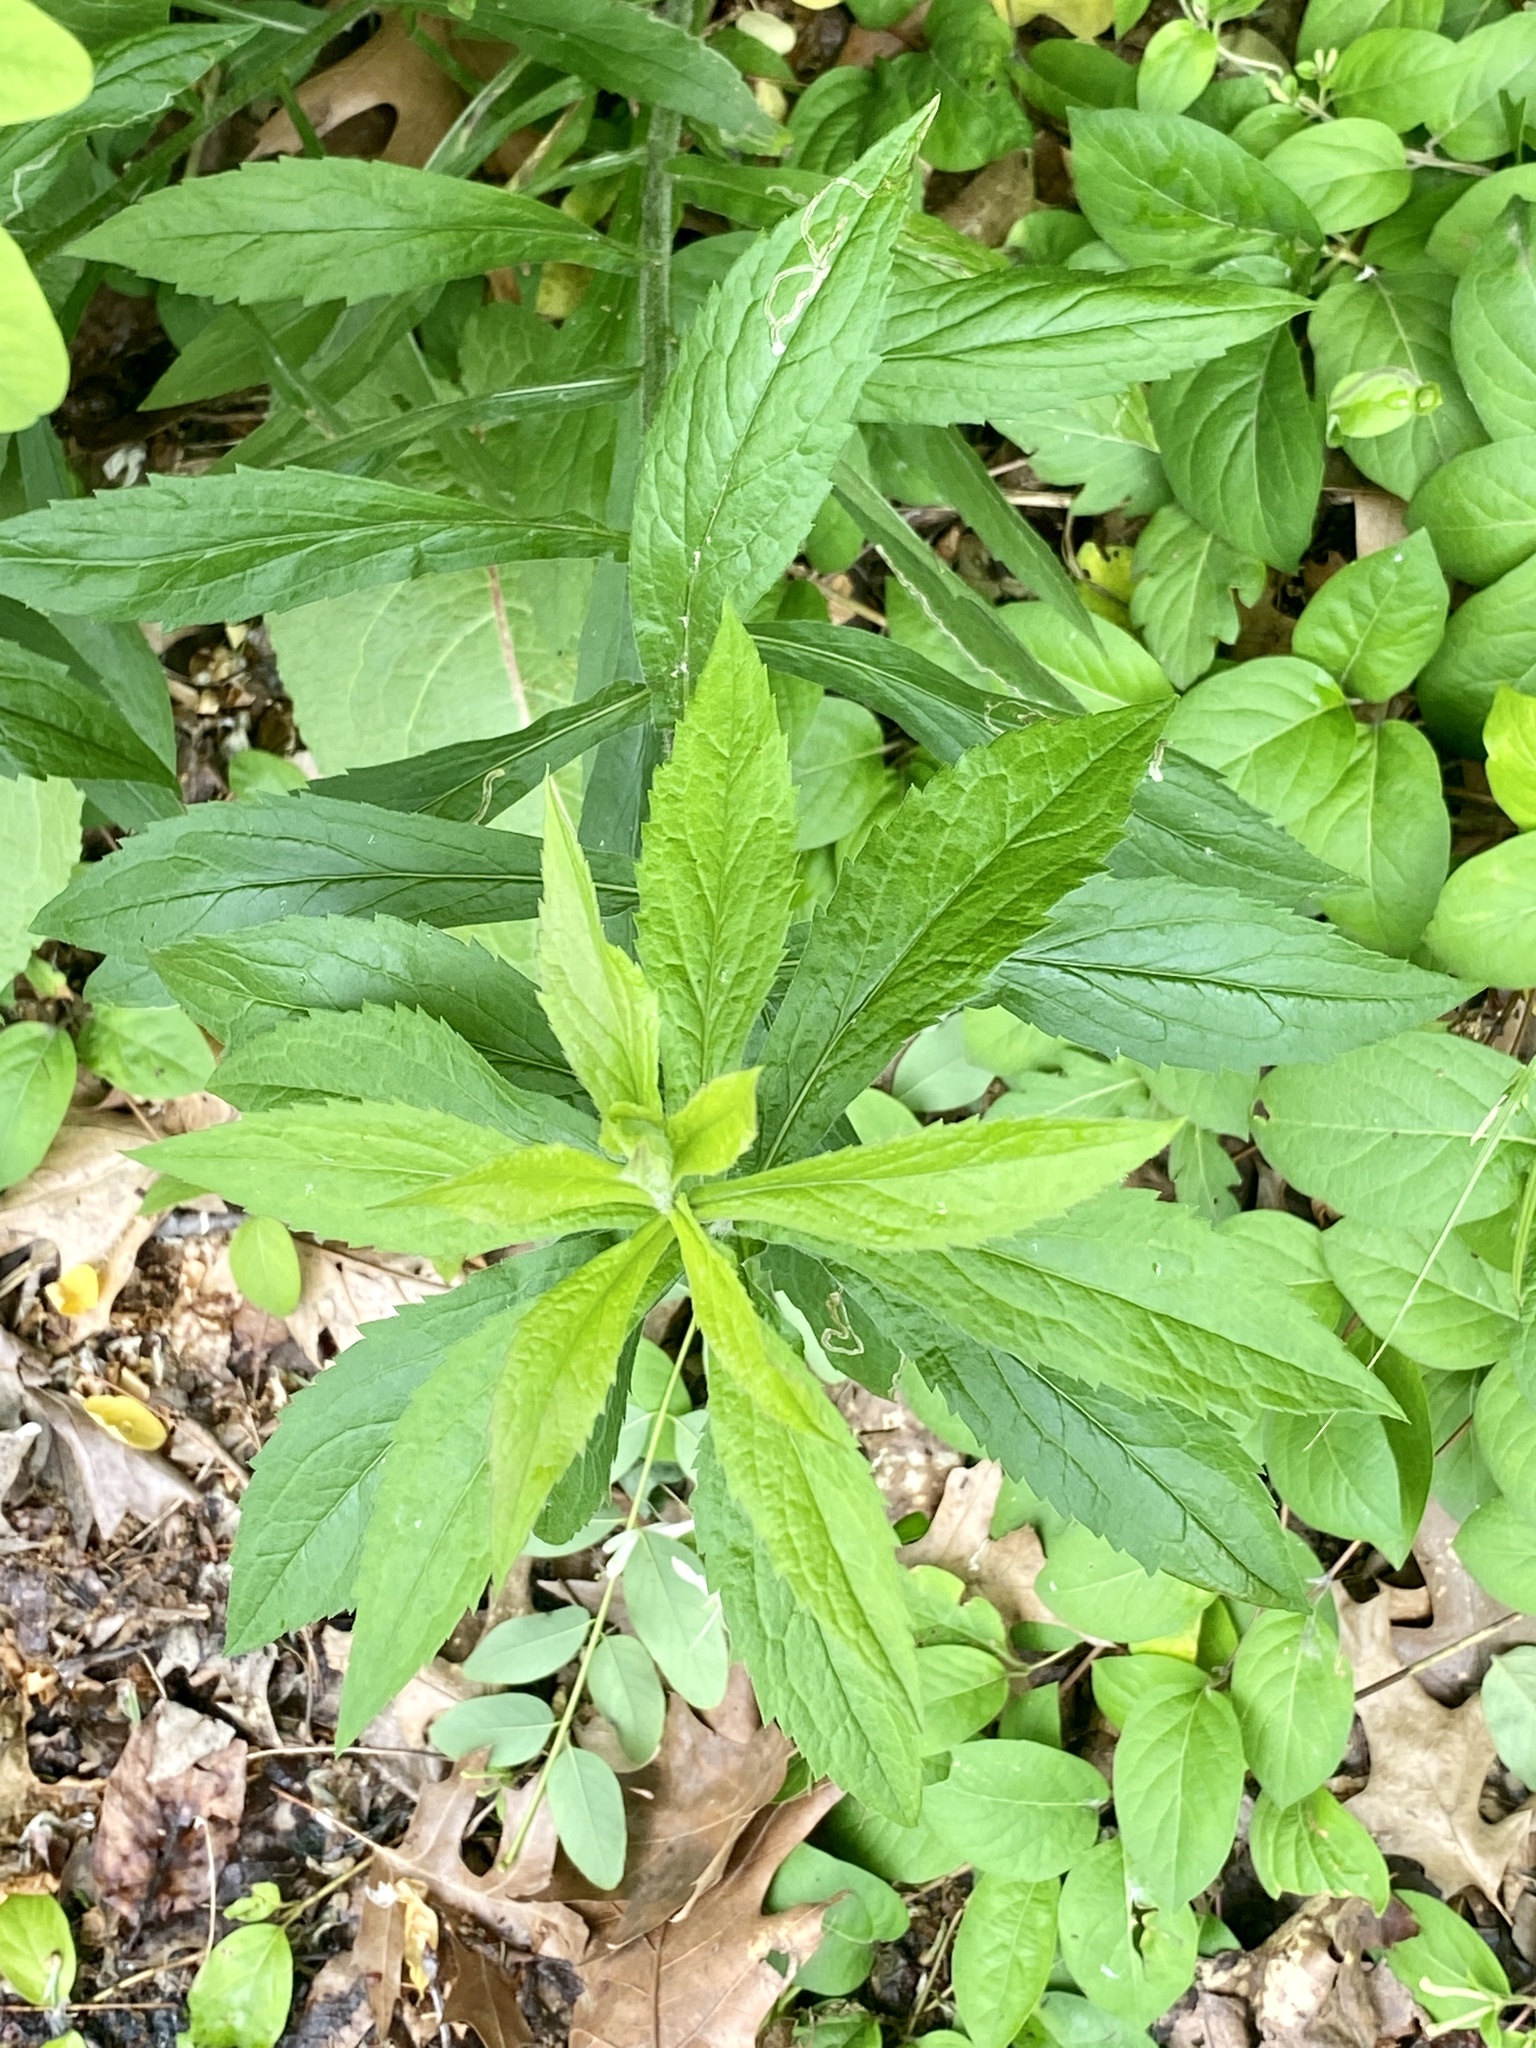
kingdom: Plantae
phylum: Tracheophyta
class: Magnoliopsida
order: Asterales
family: Asteraceae
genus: Solidago
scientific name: Solidago rugosa
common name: Rough-stemmed goldenrod
